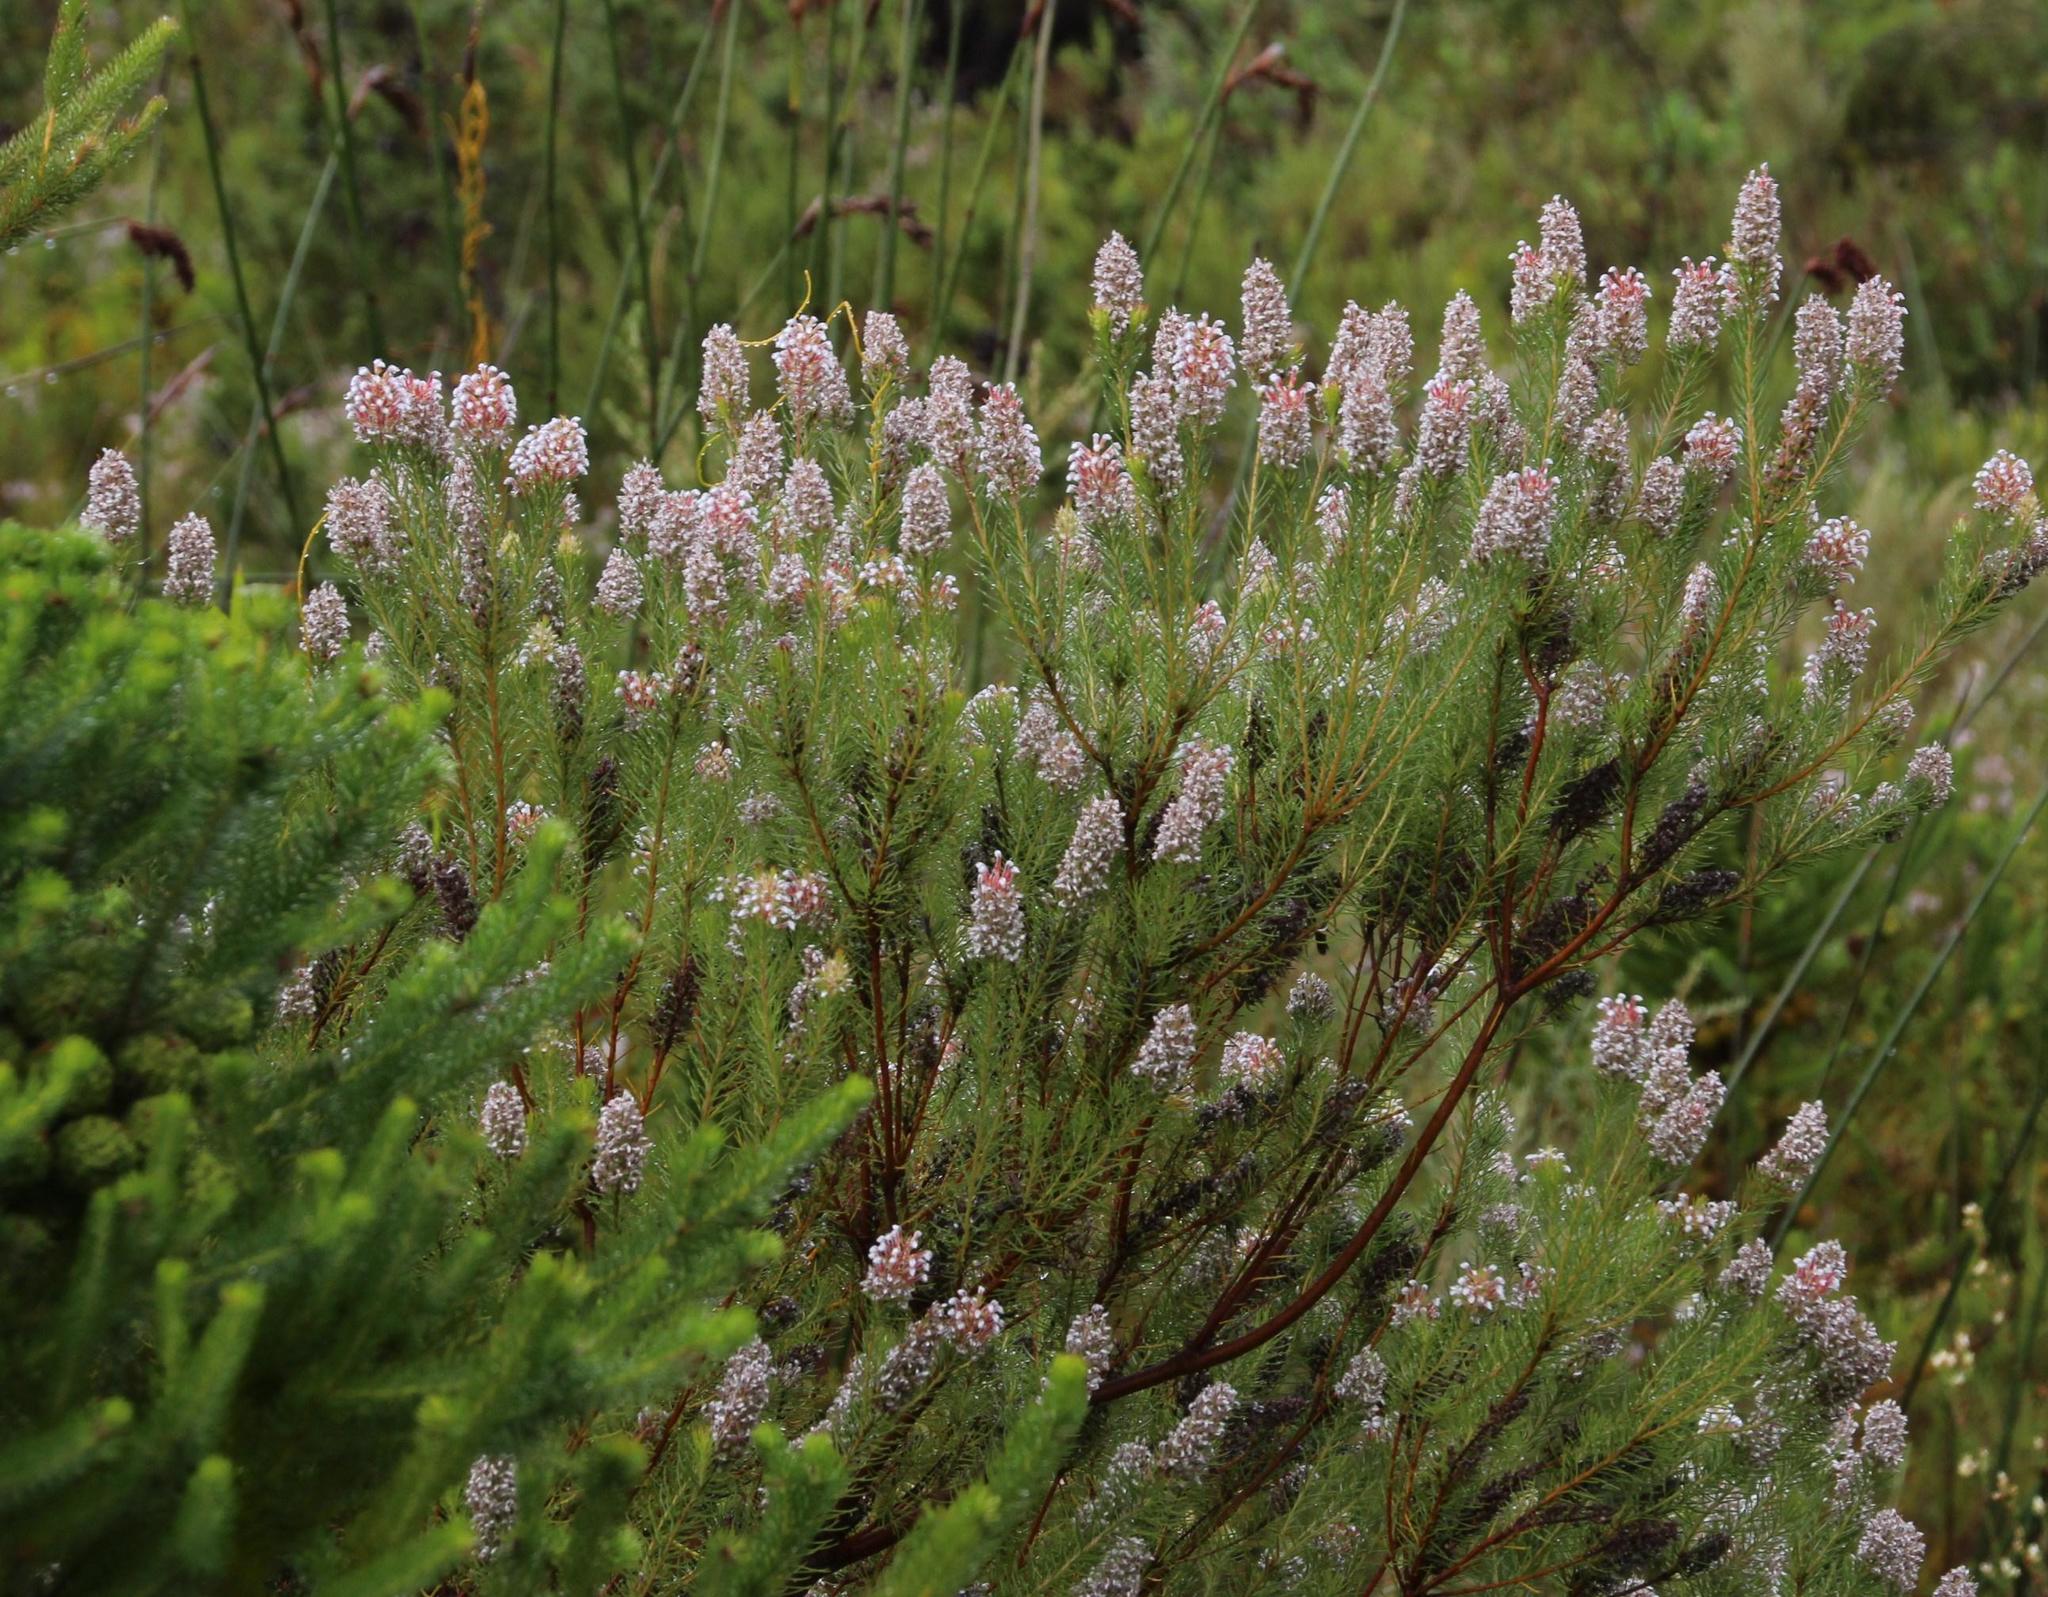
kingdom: Plantae
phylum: Tracheophyta
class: Magnoliopsida
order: Proteales
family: Proteaceae
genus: Spatalla
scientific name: Spatalla parilis
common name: Spike spoon
